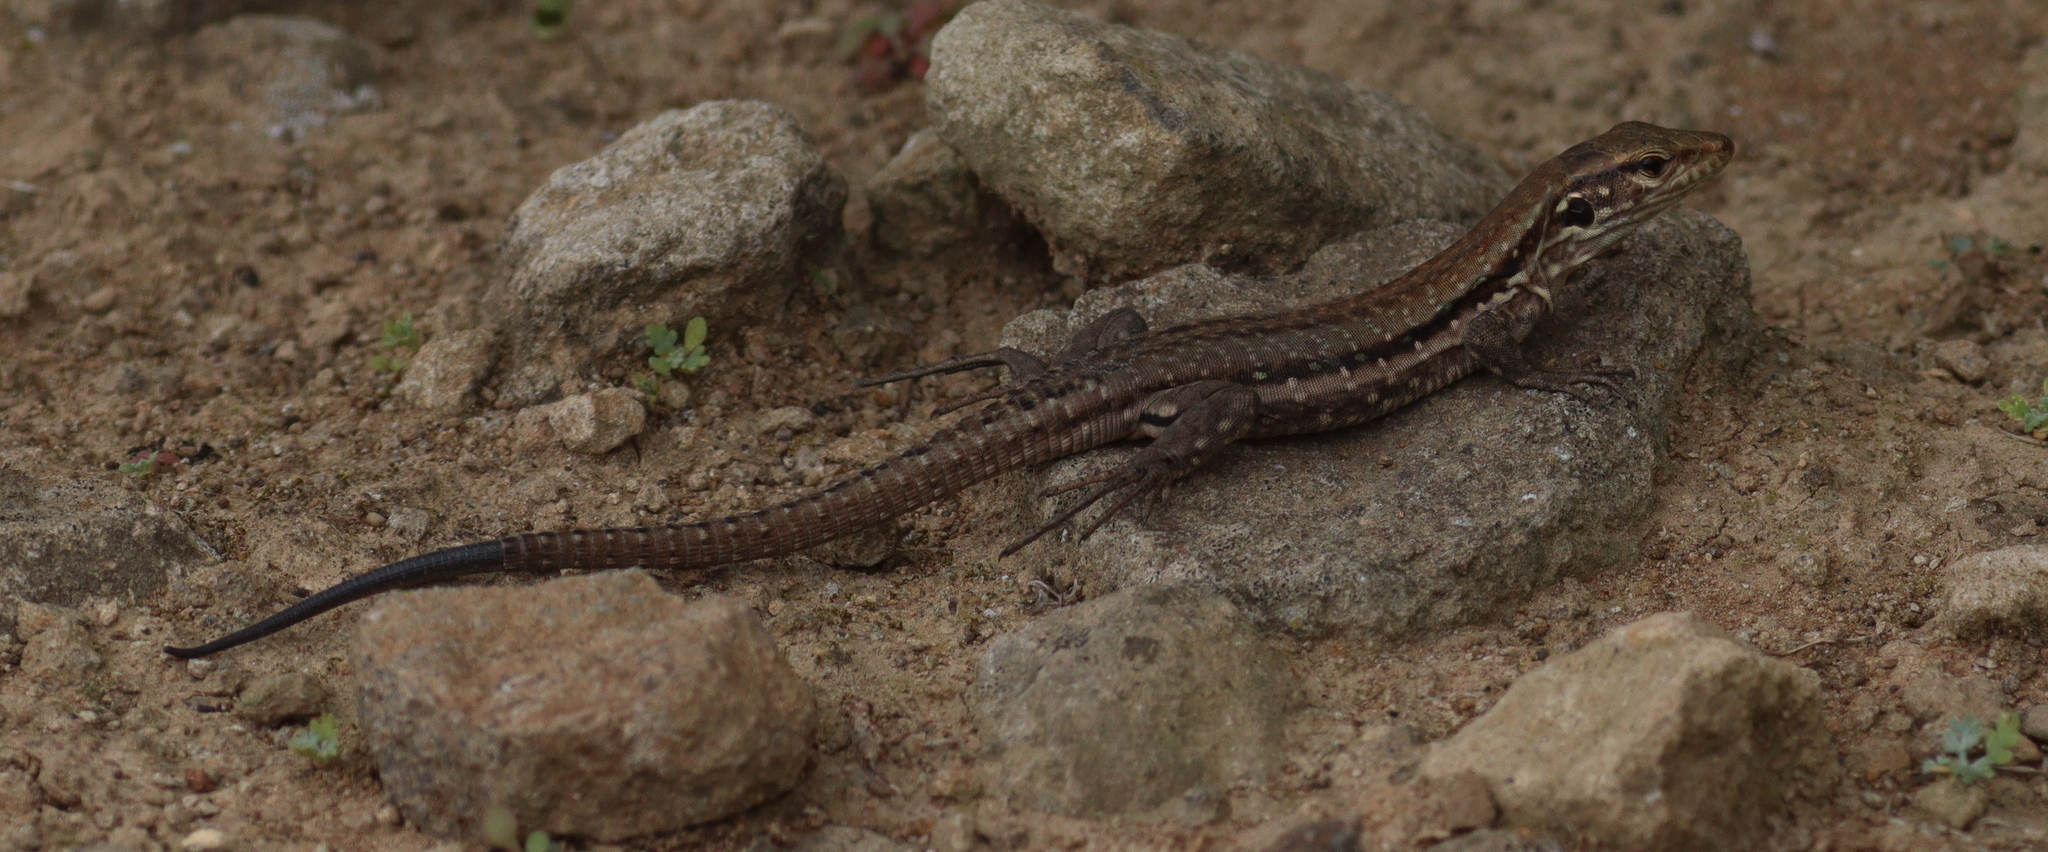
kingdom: Animalia
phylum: Chordata
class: Squamata
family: Lacertidae
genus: Gallotia
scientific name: Gallotia galloti
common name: Gallot's lizard
